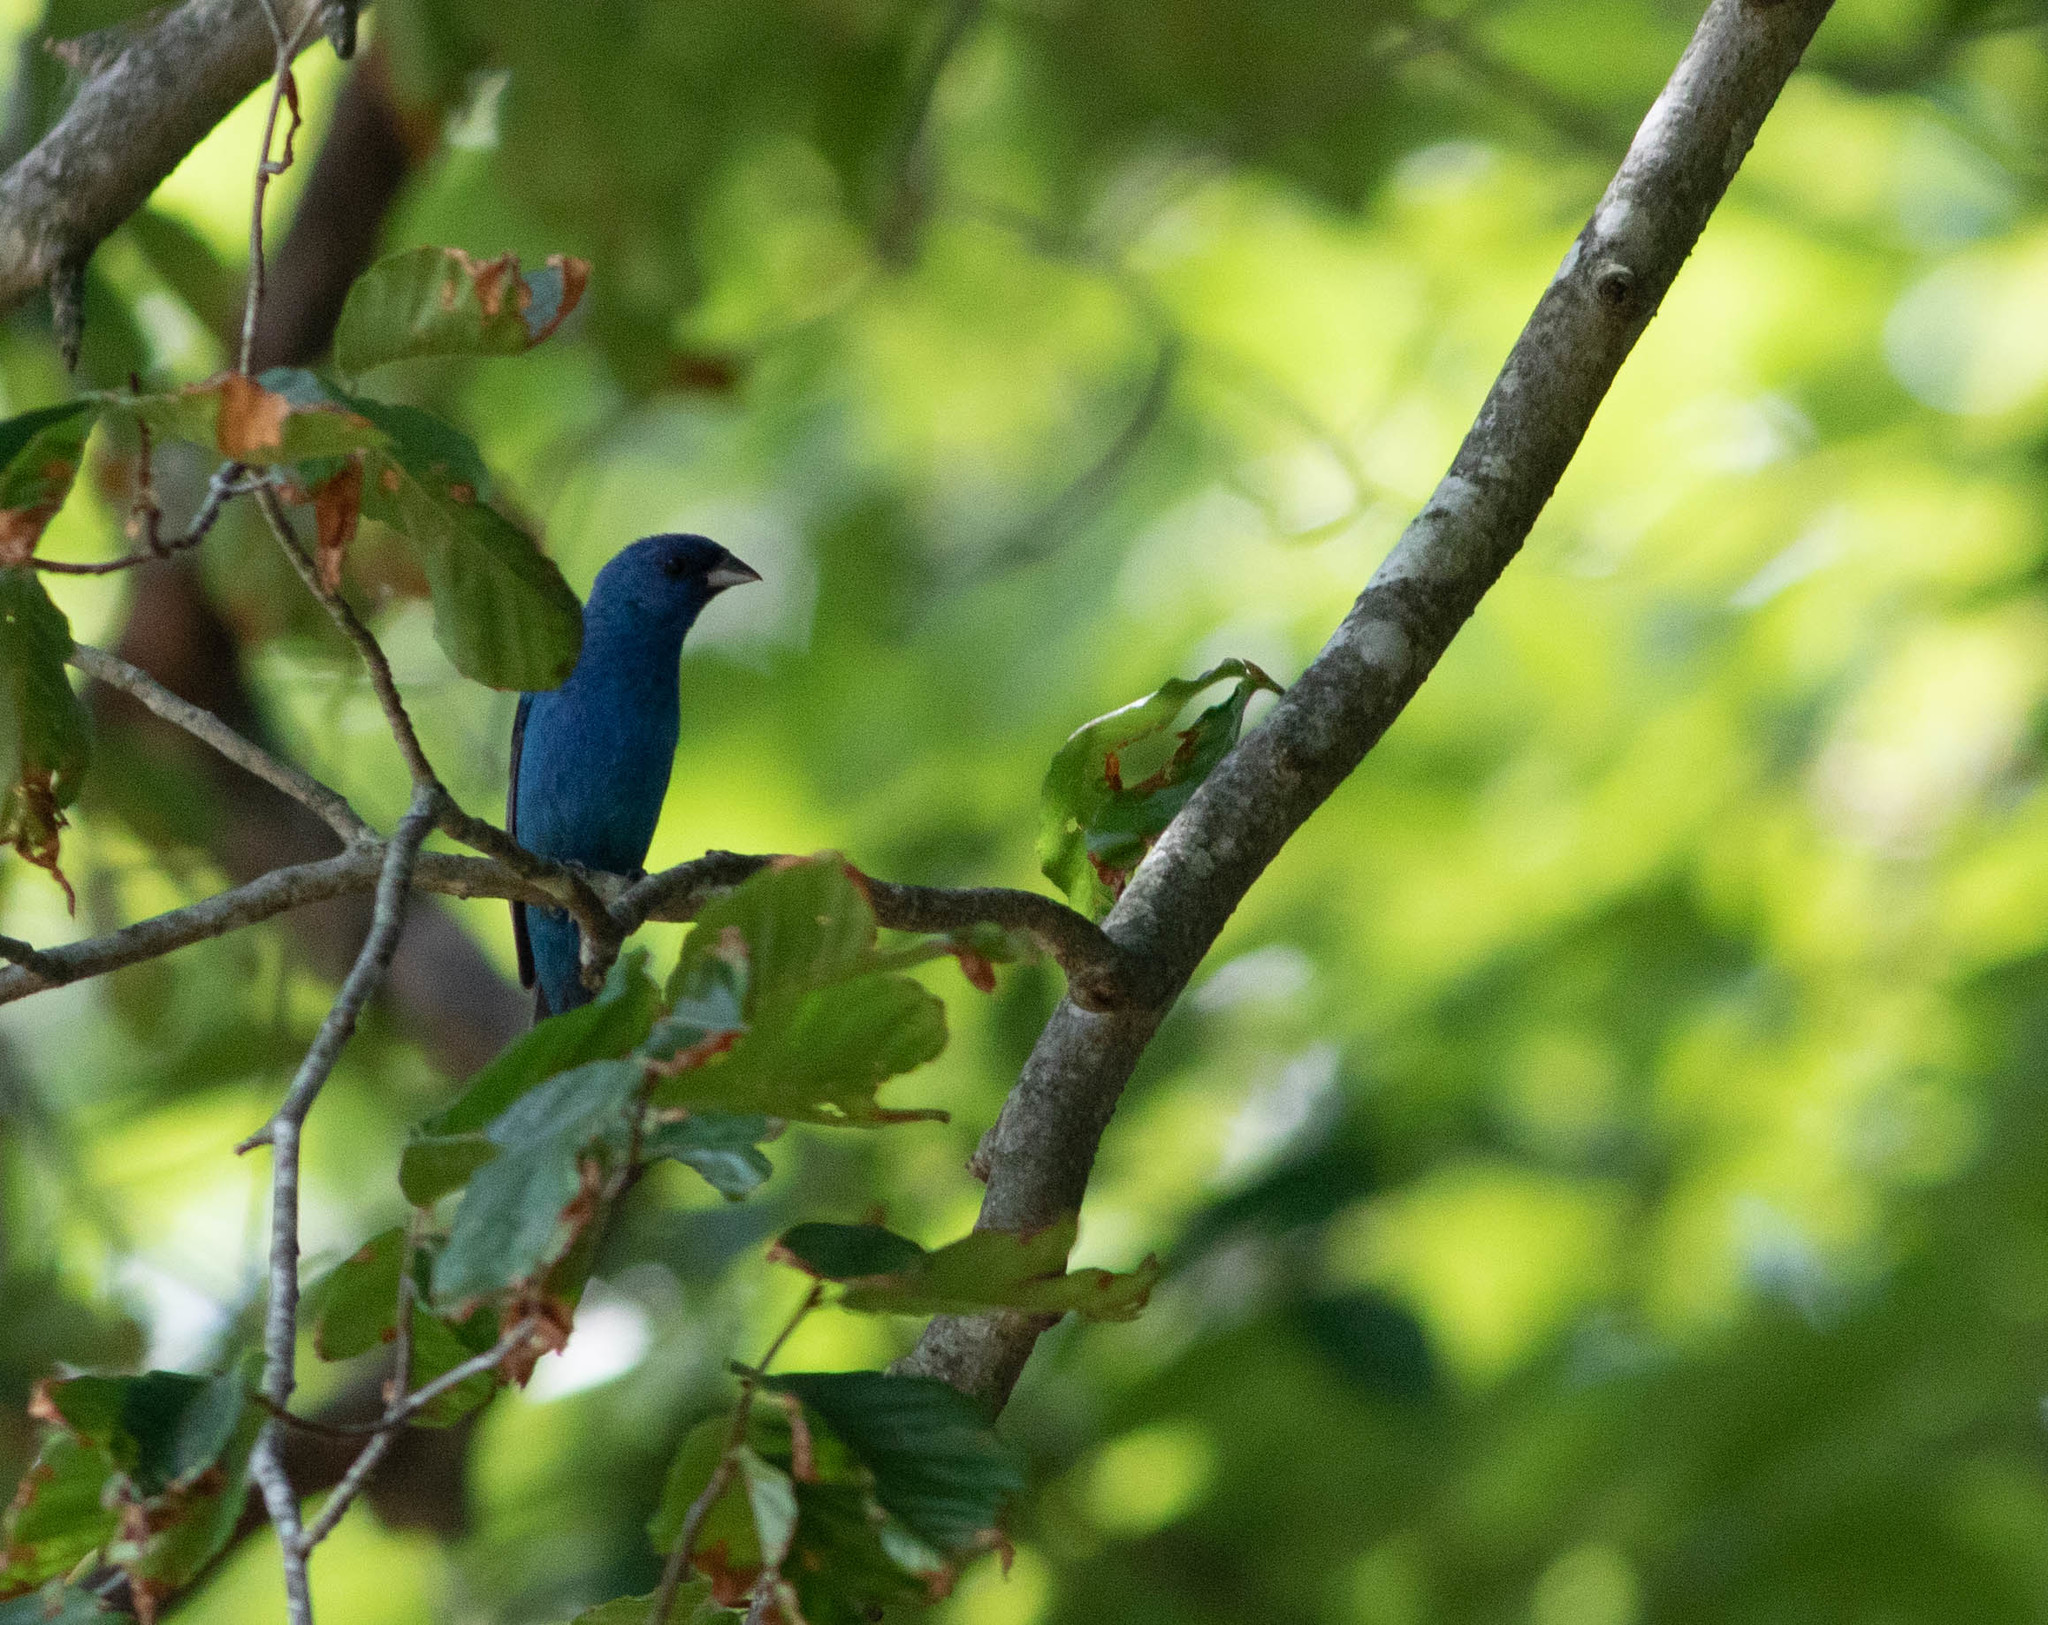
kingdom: Animalia
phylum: Chordata
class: Aves
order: Passeriformes
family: Cardinalidae
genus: Passerina
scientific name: Passerina cyanea
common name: Indigo bunting
